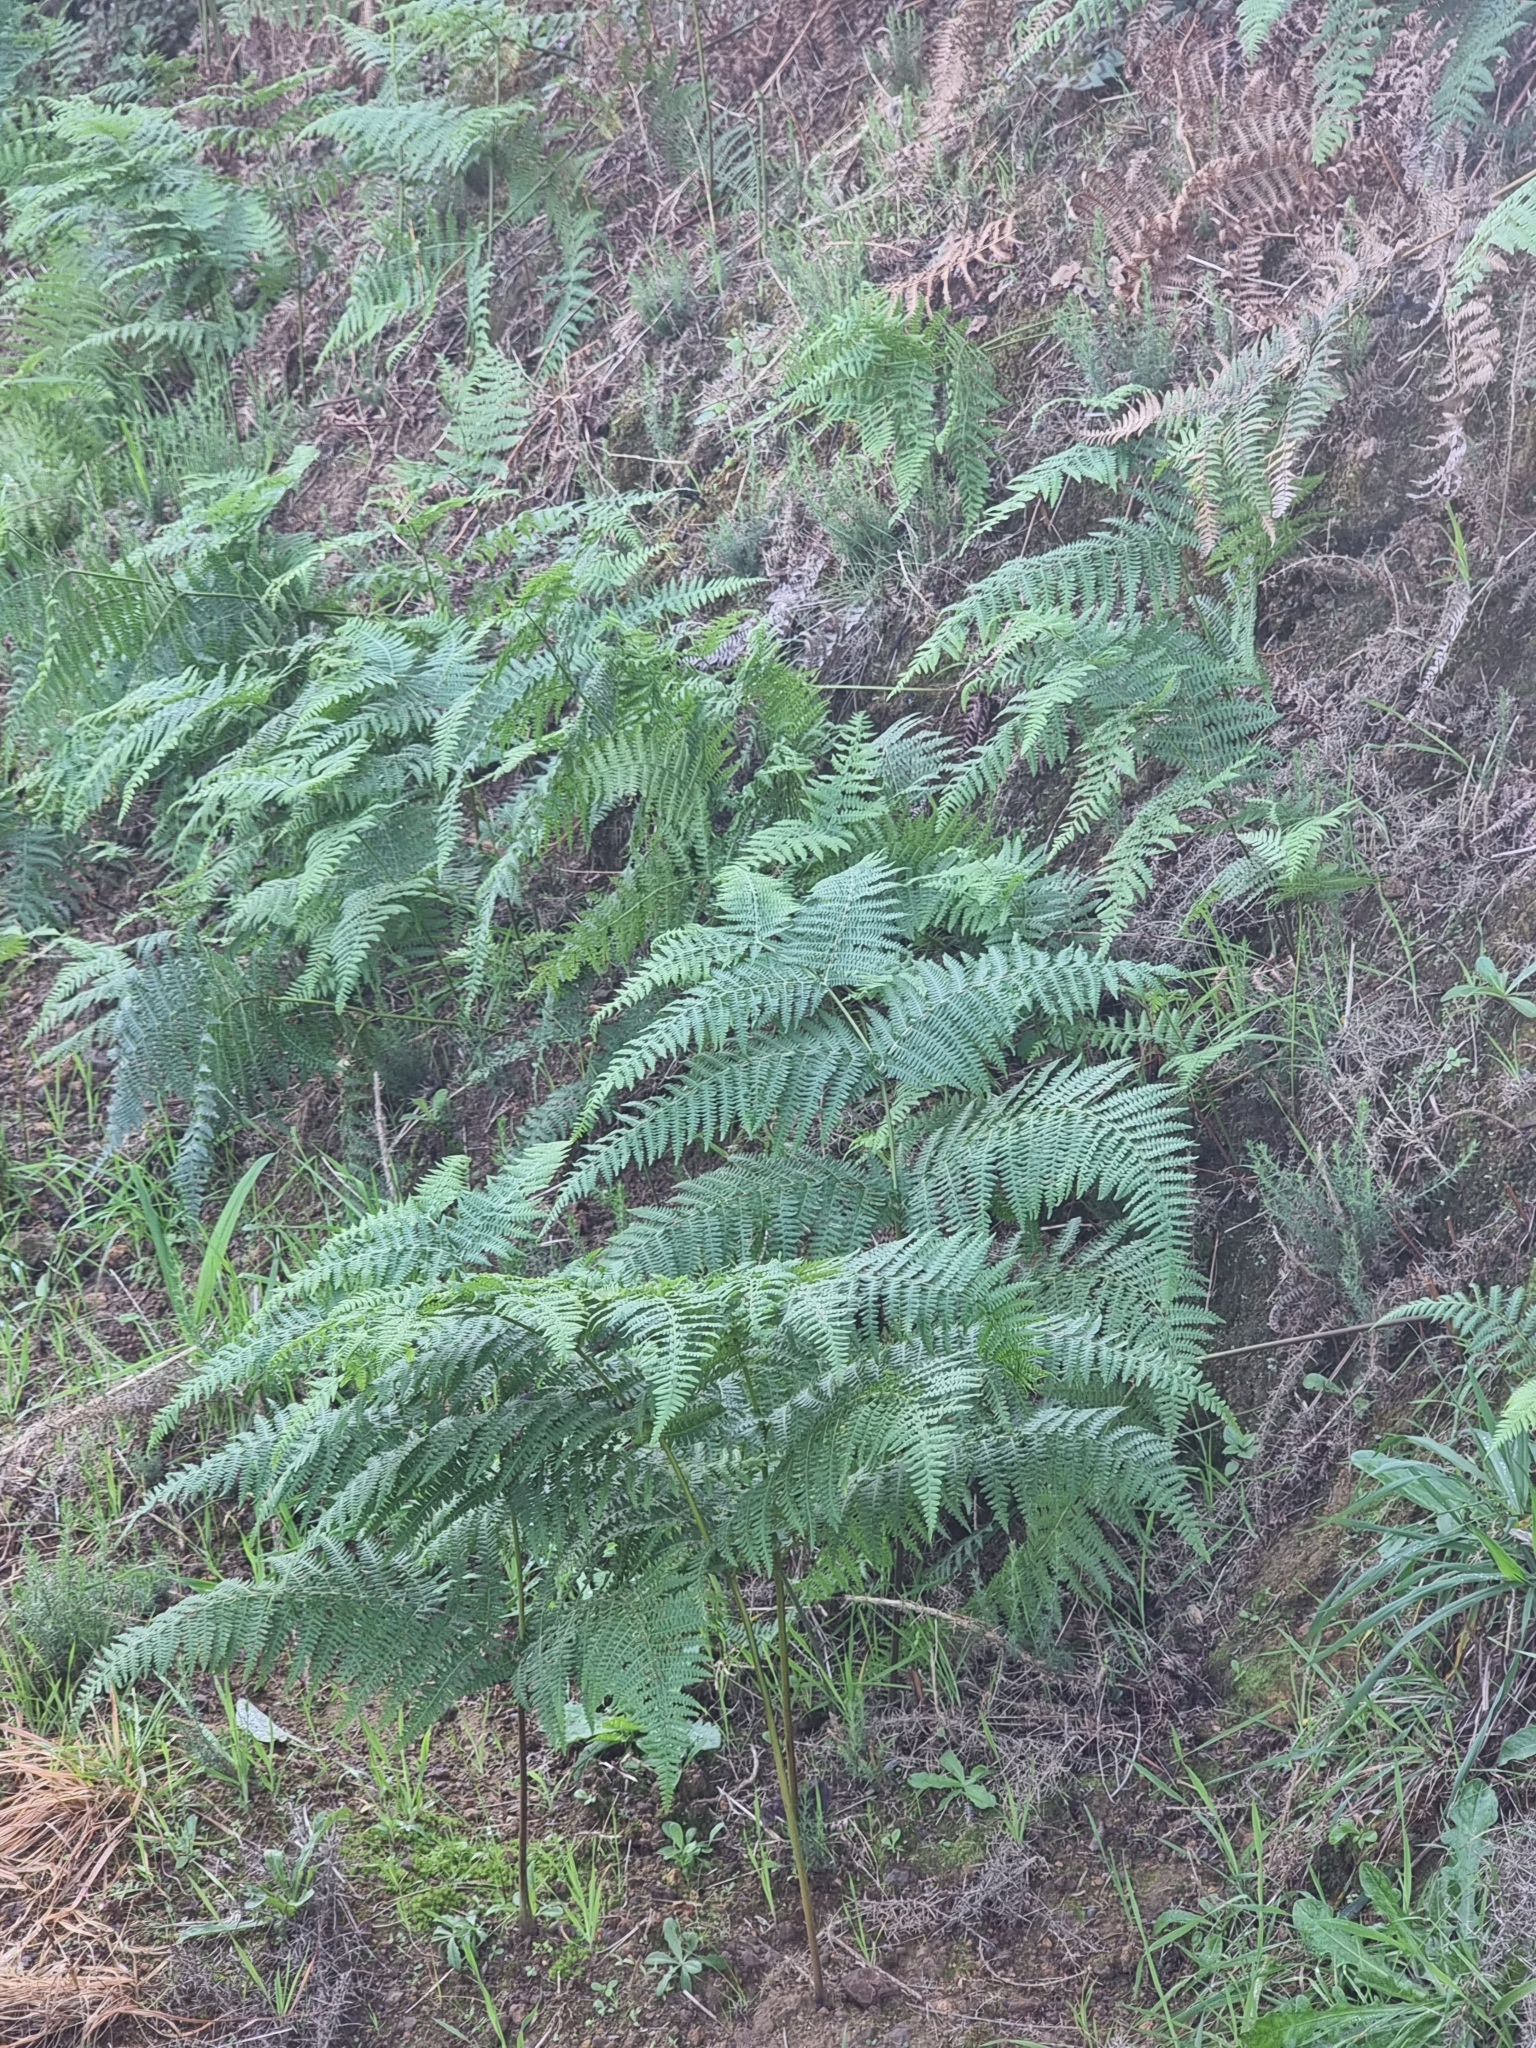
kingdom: Plantae
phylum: Tracheophyta
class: Polypodiopsida
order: Polypodiales
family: Dennstaedtiaceae
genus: Pteridium
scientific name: Pteridium aquilinum
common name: Bracken
